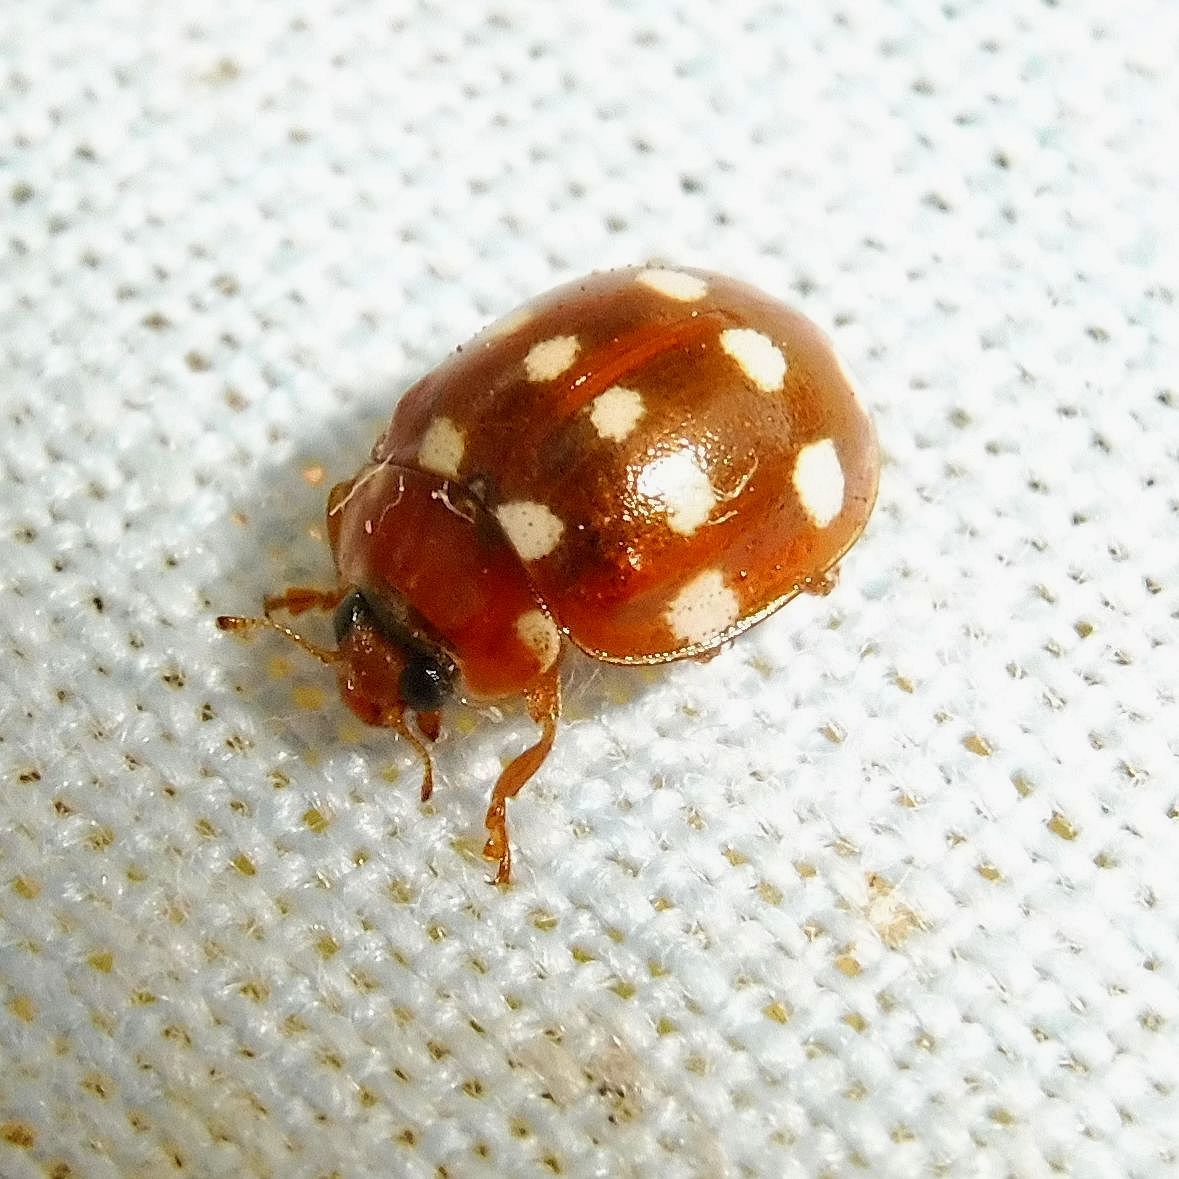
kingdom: Animalia
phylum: Arthropoda
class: Insecta
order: Coleoptera
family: Coccinellidae
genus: Calvia
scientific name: Calvia quatuordecimguttata
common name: Cream-spot ladybird
